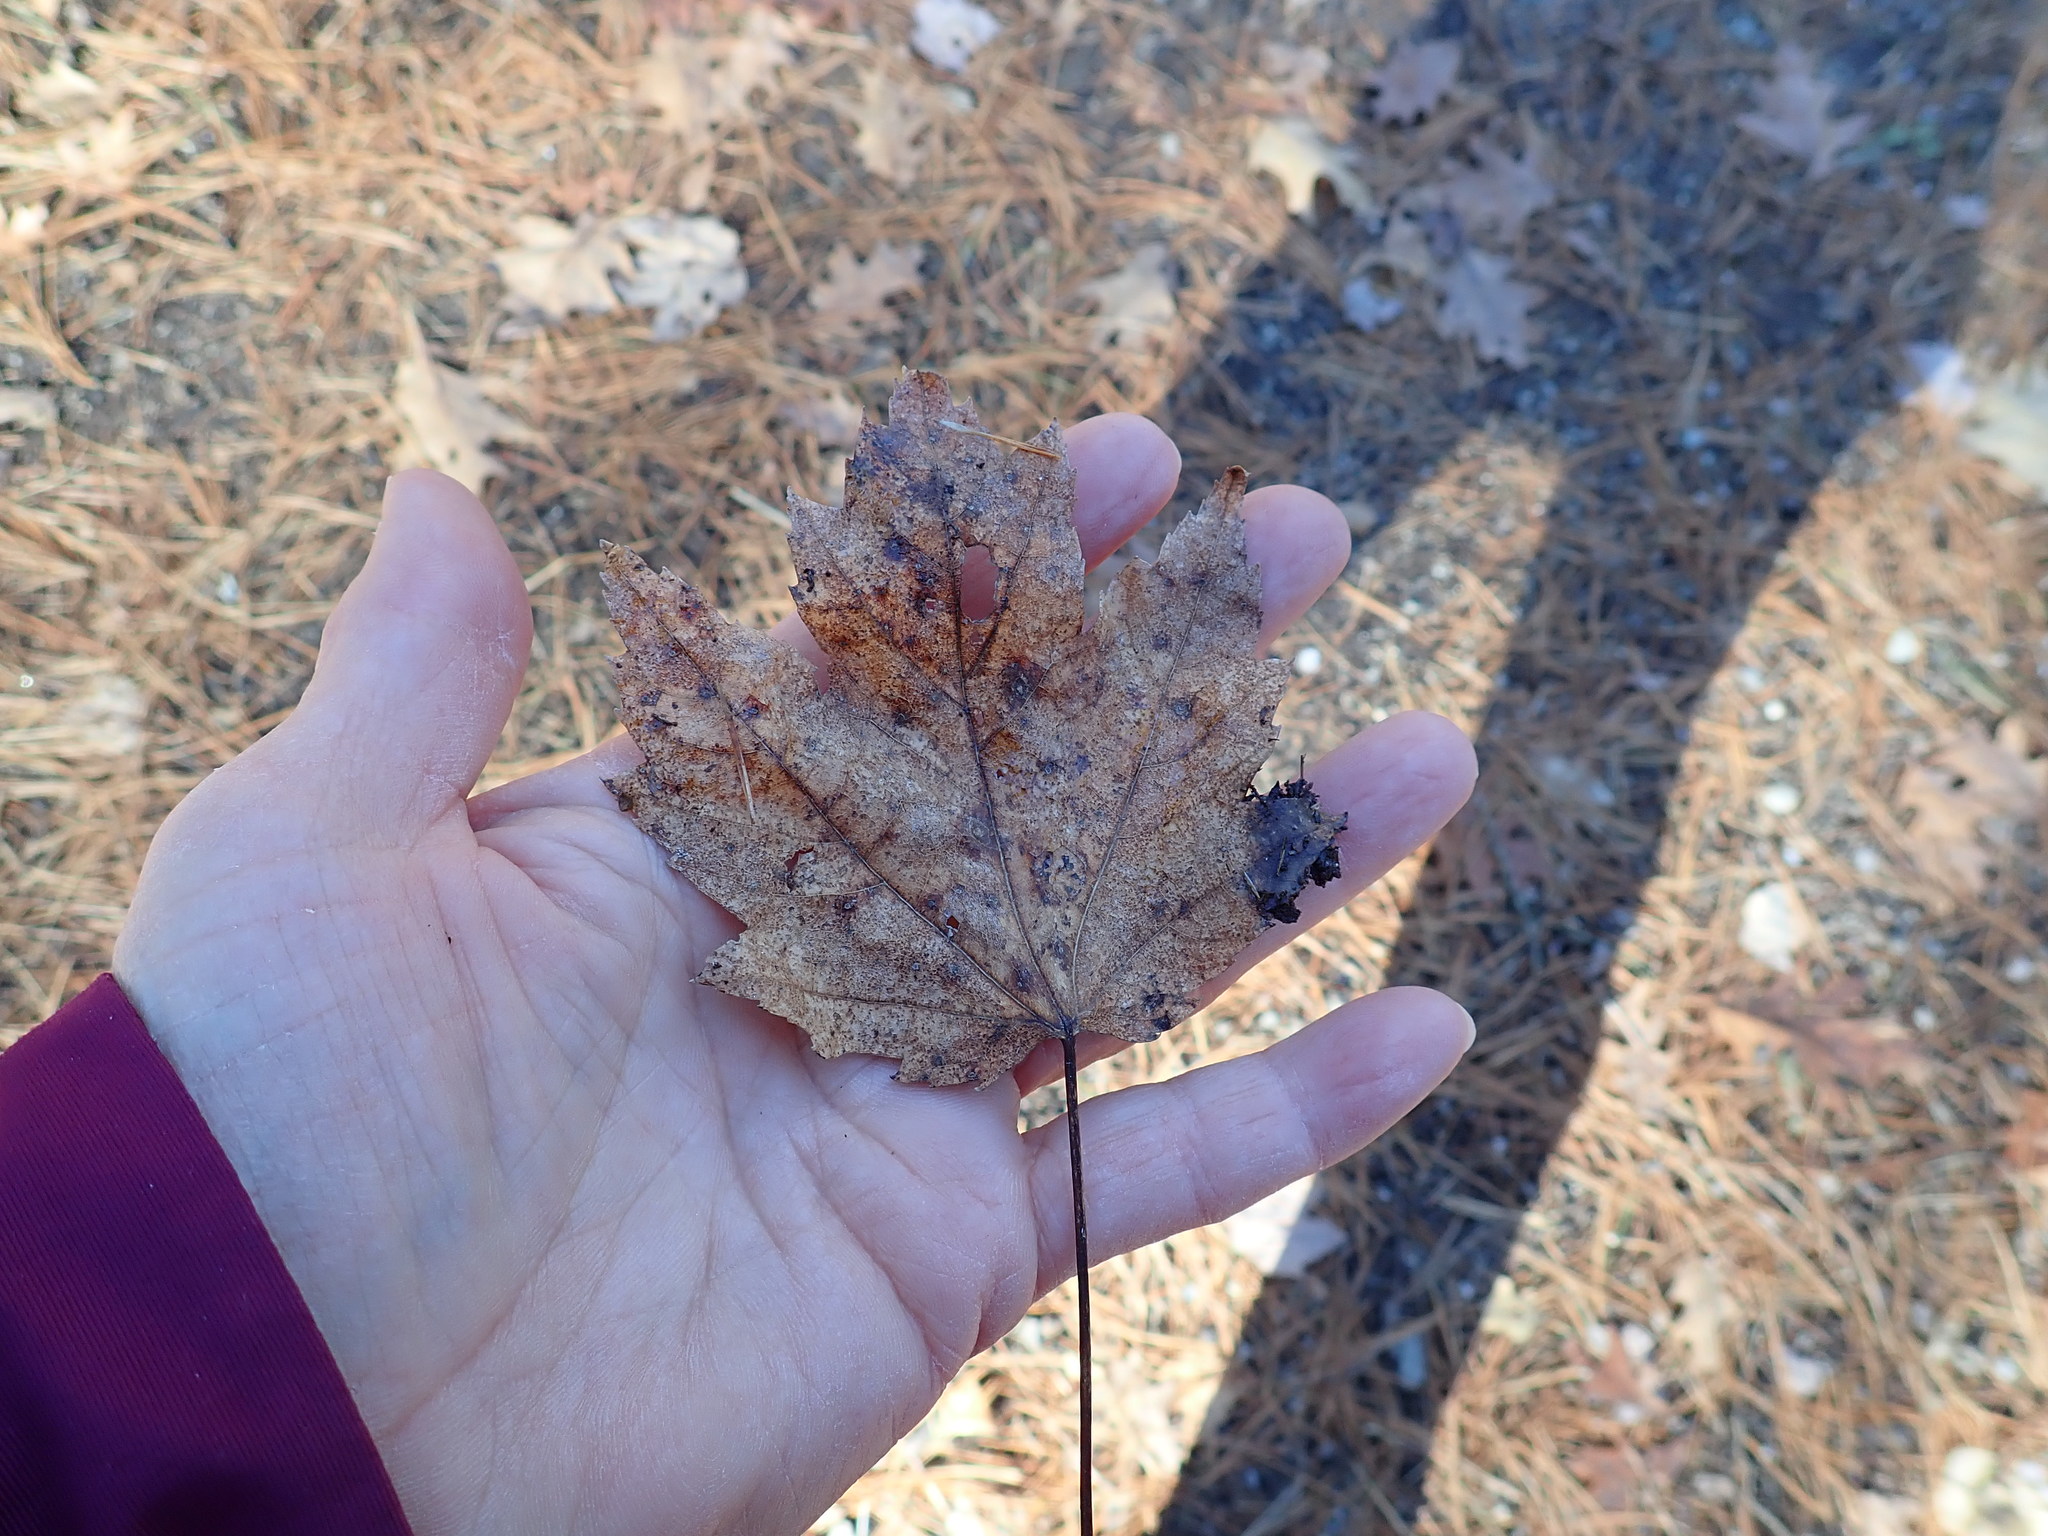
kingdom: Plantae
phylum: Tracheophyta
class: Magnoliopsida
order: Sapindales
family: Sapindaceae
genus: Acer
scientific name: Acer rubrum
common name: Red maple
